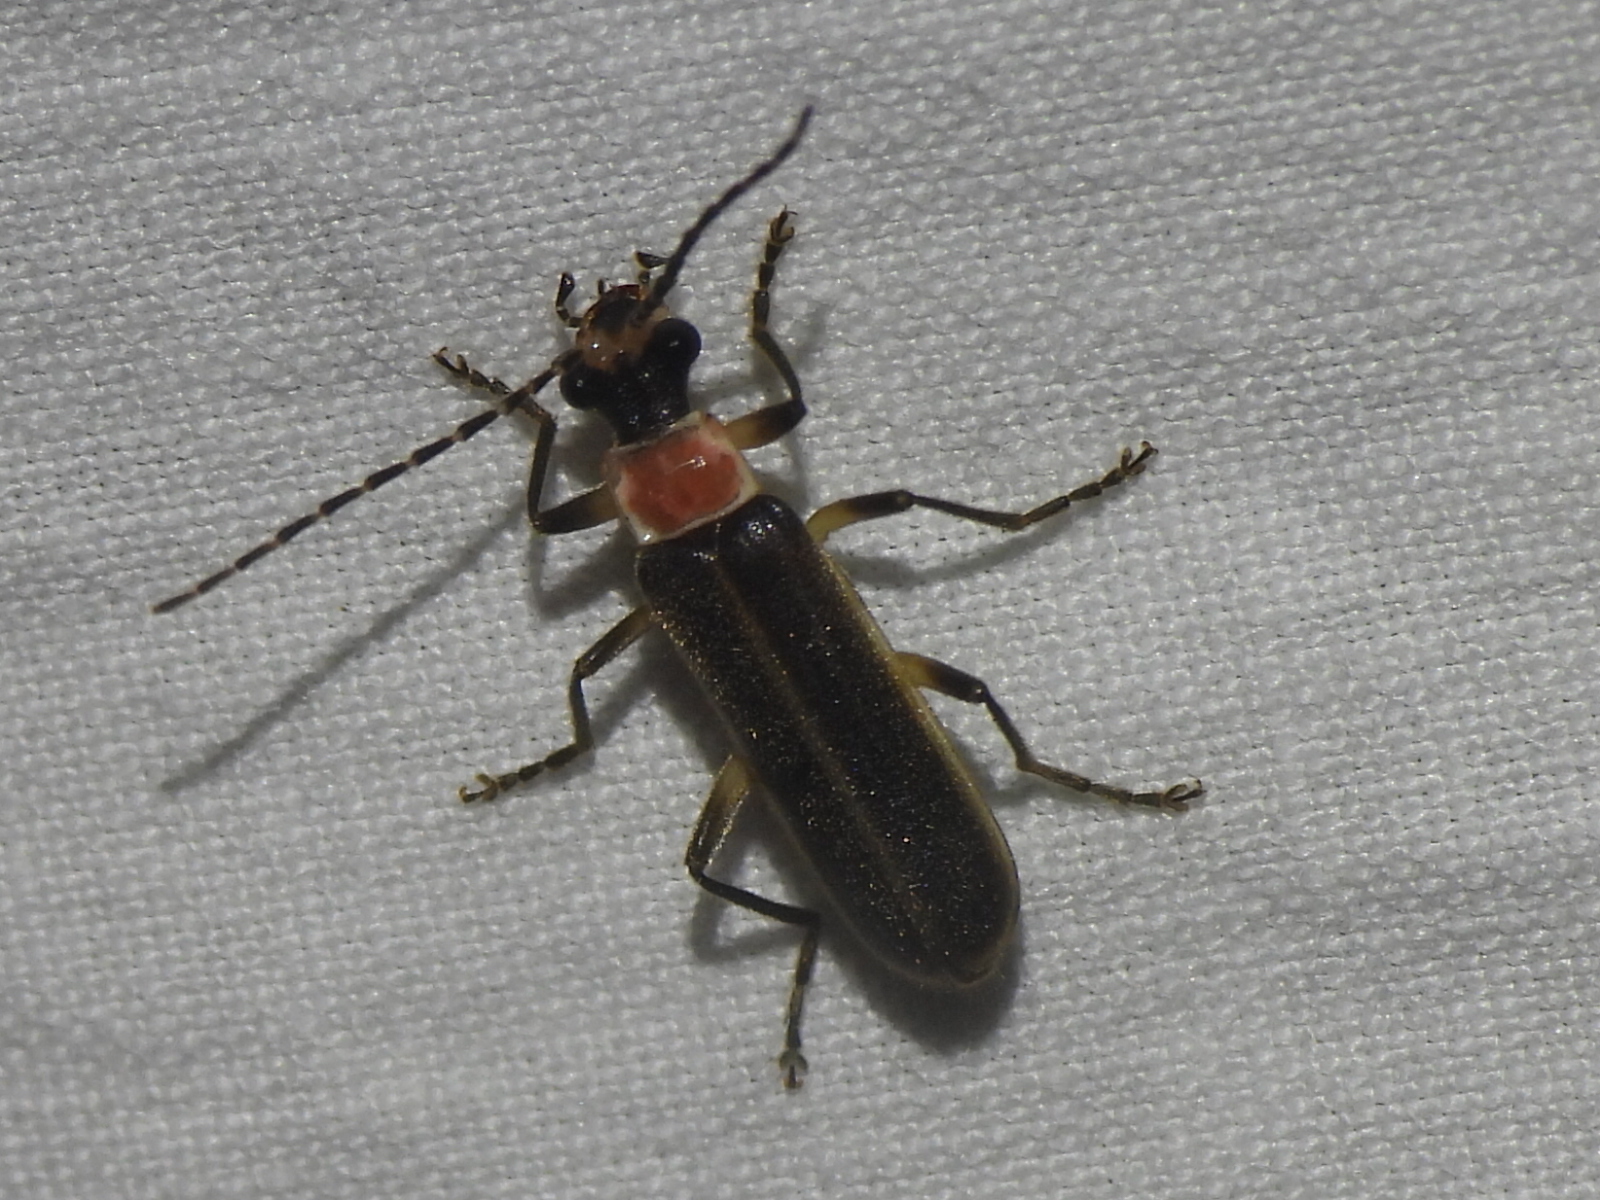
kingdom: Animalia
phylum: Arthropoda
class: Insecta
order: Coleoptera
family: Cantharidae
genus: Podabrus
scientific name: Podabrus quadratus
